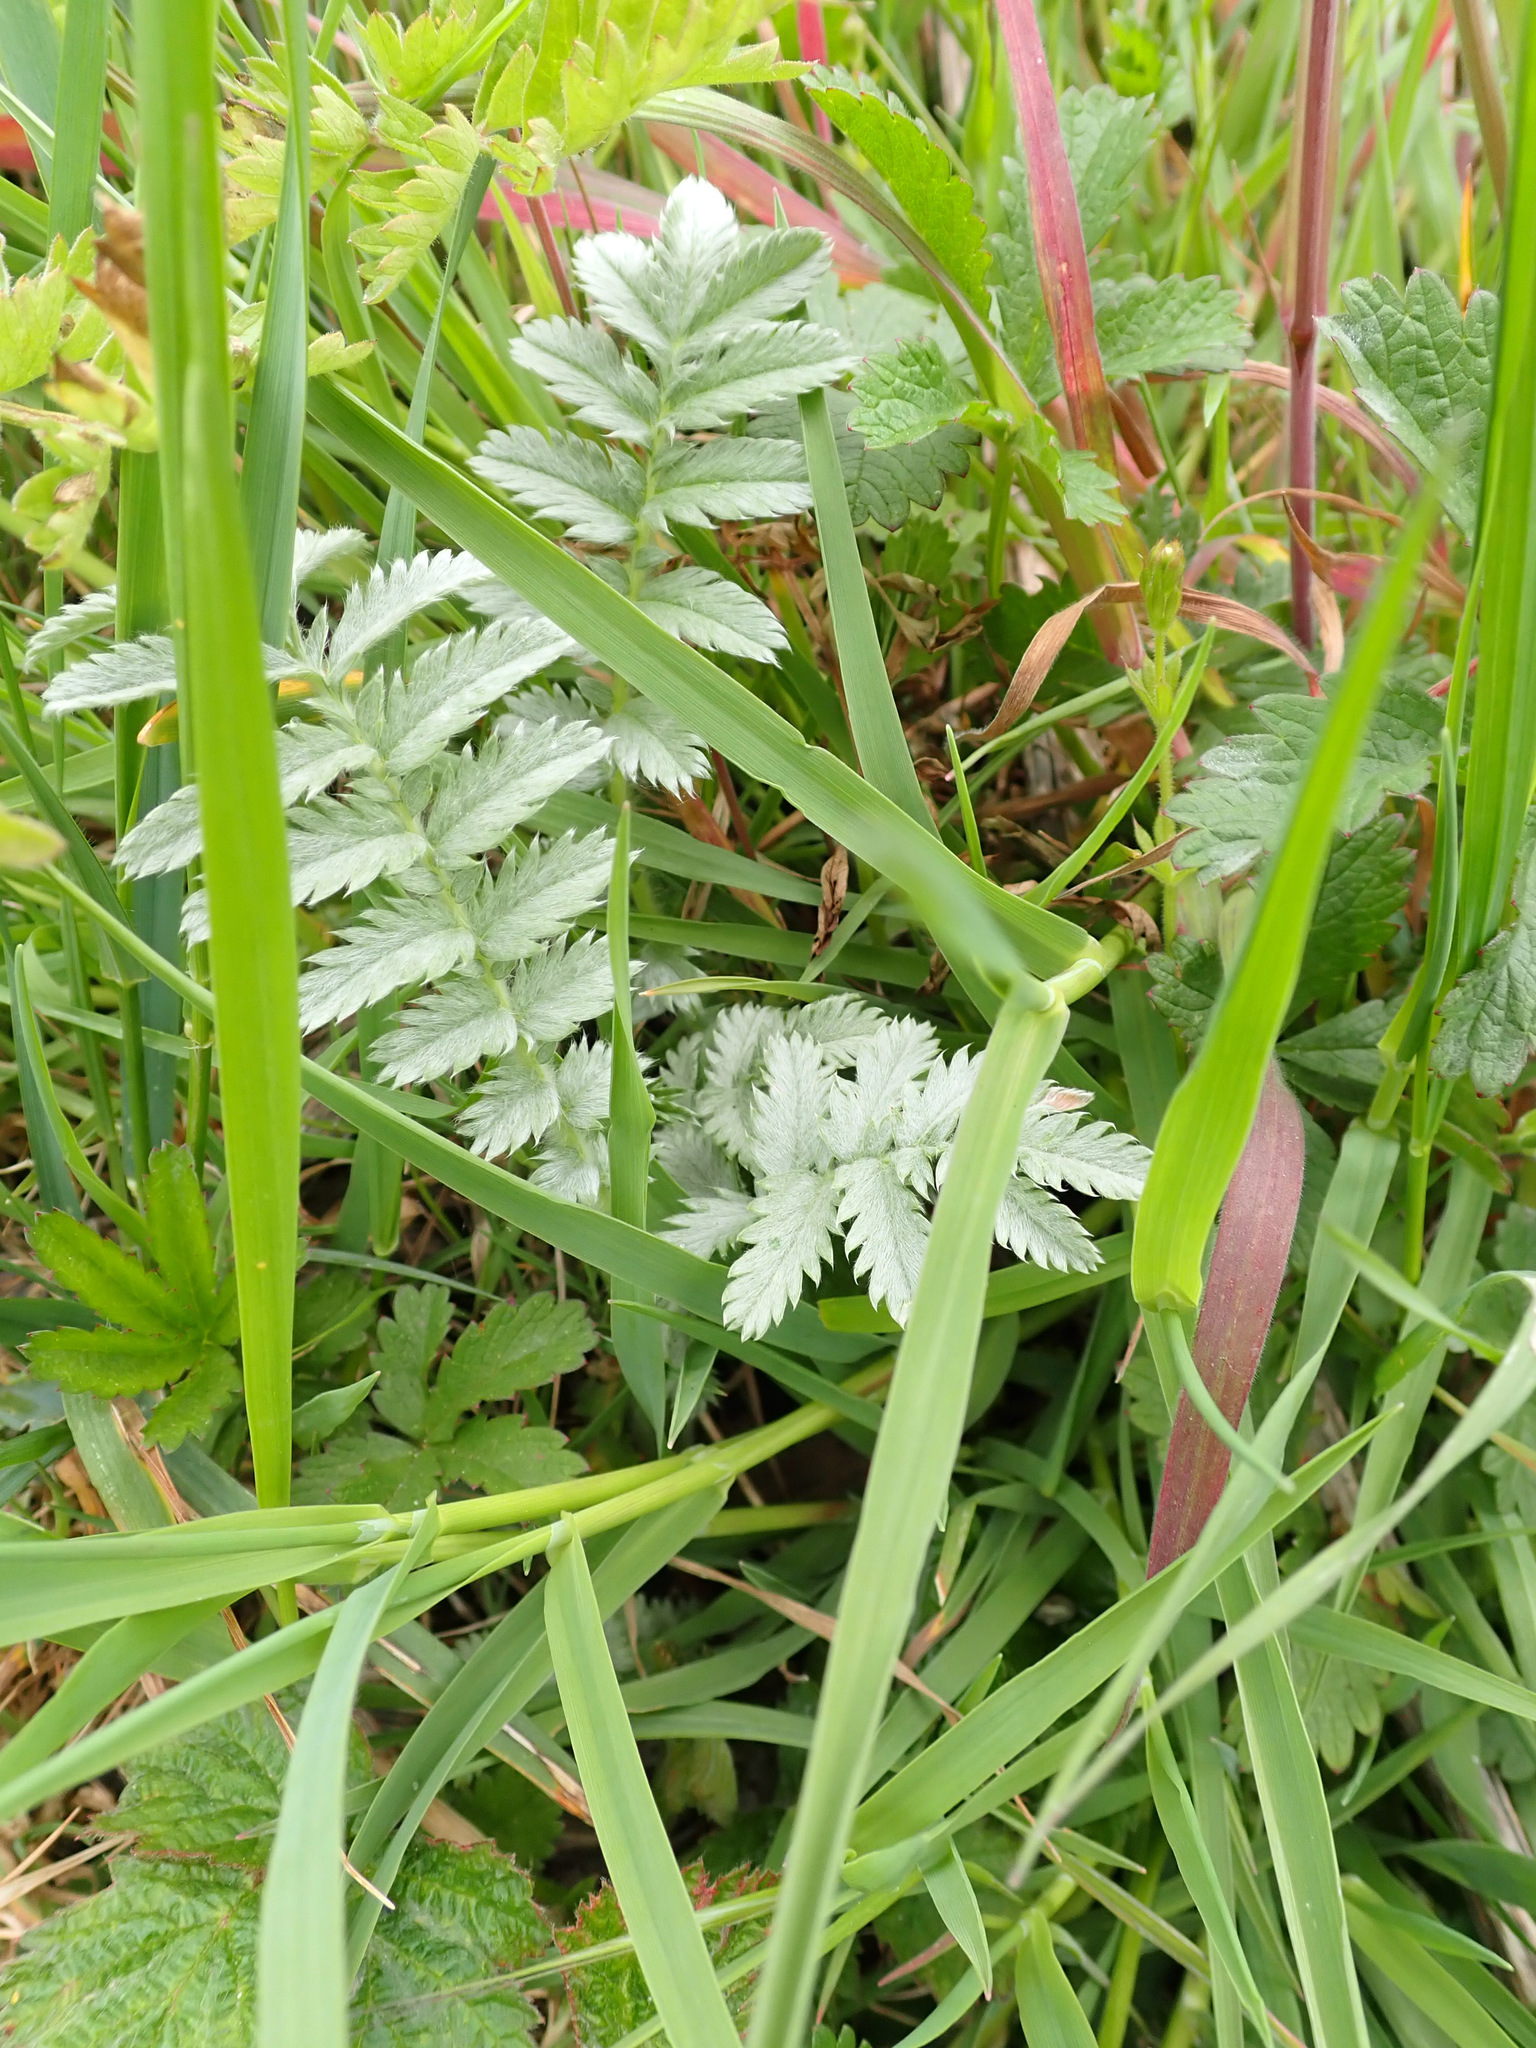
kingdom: Plantae
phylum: Tracheophyta
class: Magnoliopsida
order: Rosales
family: Rosaceae
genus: Argentina
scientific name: Argentina anserina
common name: Common silverweed
